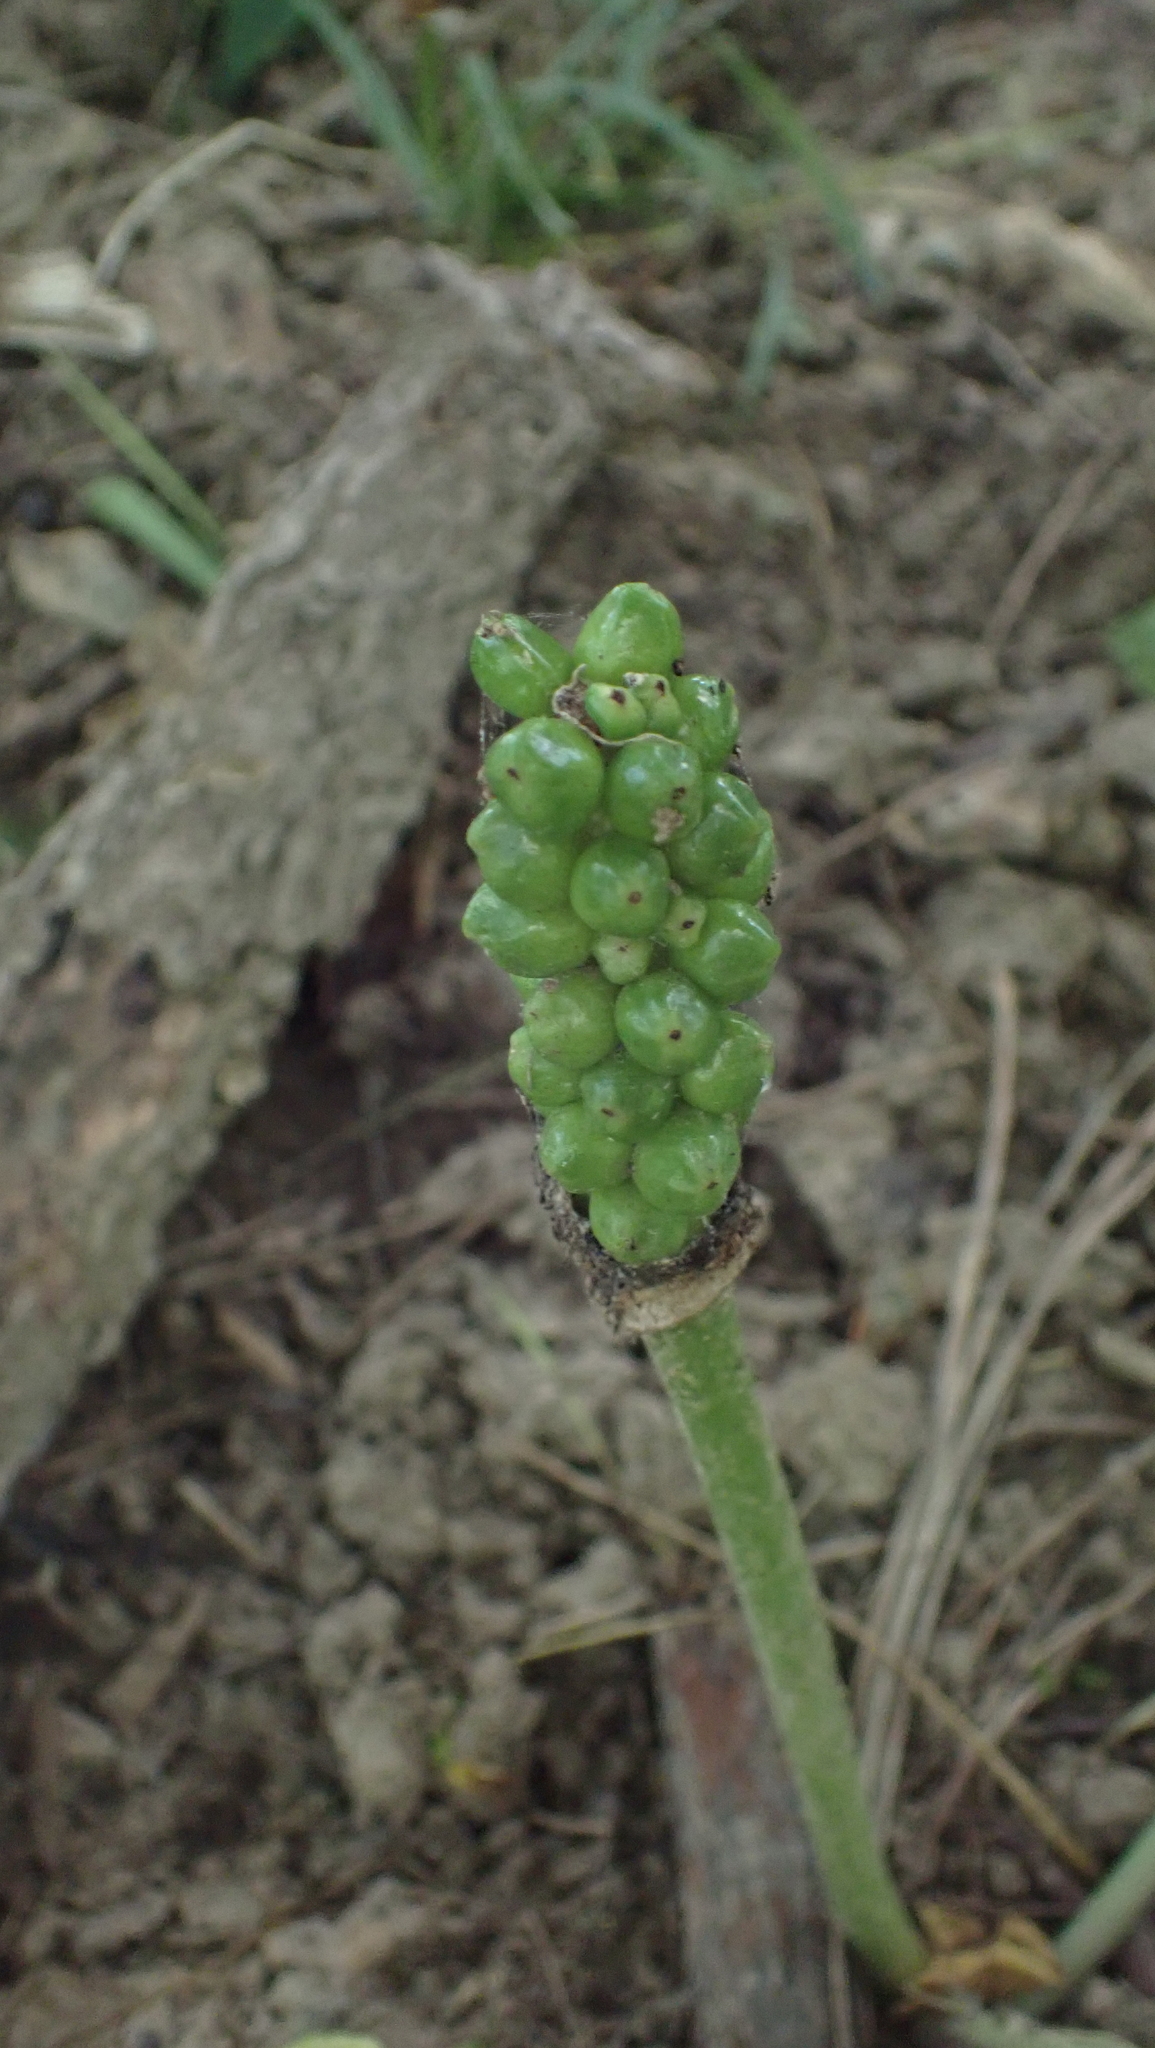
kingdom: Plantae
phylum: Tracheophyta
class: Liliopsida
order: Alismatales
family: Araceae
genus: Arum
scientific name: Arum italicum
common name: Italian lords-and-ladies
